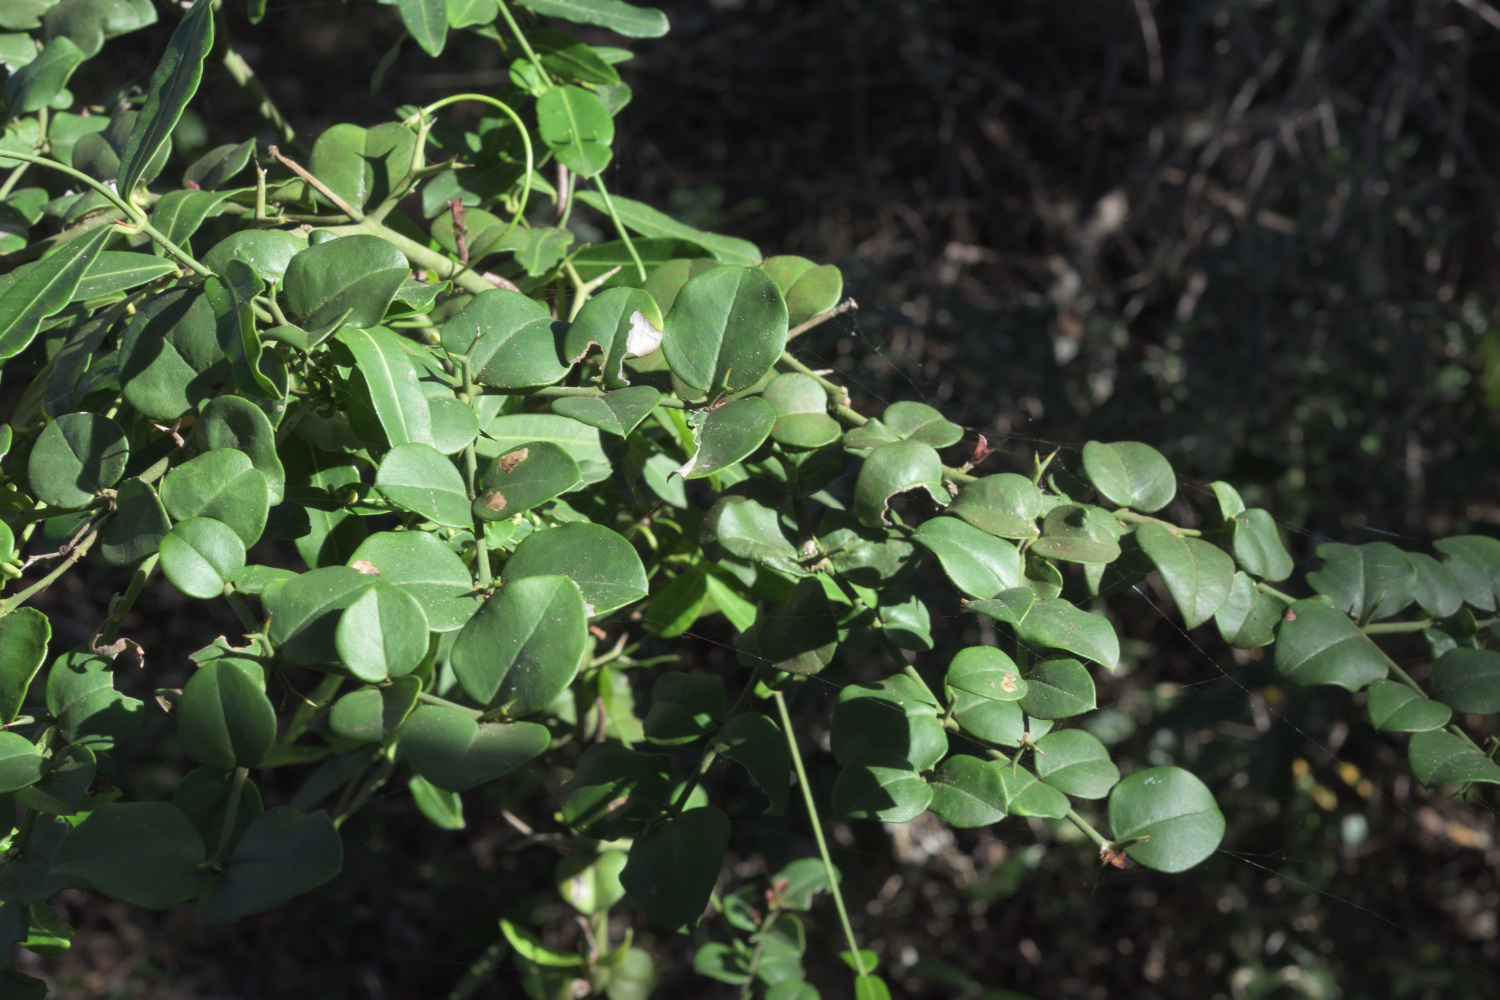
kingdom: Plantae
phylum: Tracheophyta
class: Magnoliopsida
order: Gentianales
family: Apocynaceae
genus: Carissa
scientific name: Carissa bispinosa
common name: Forest num-num
